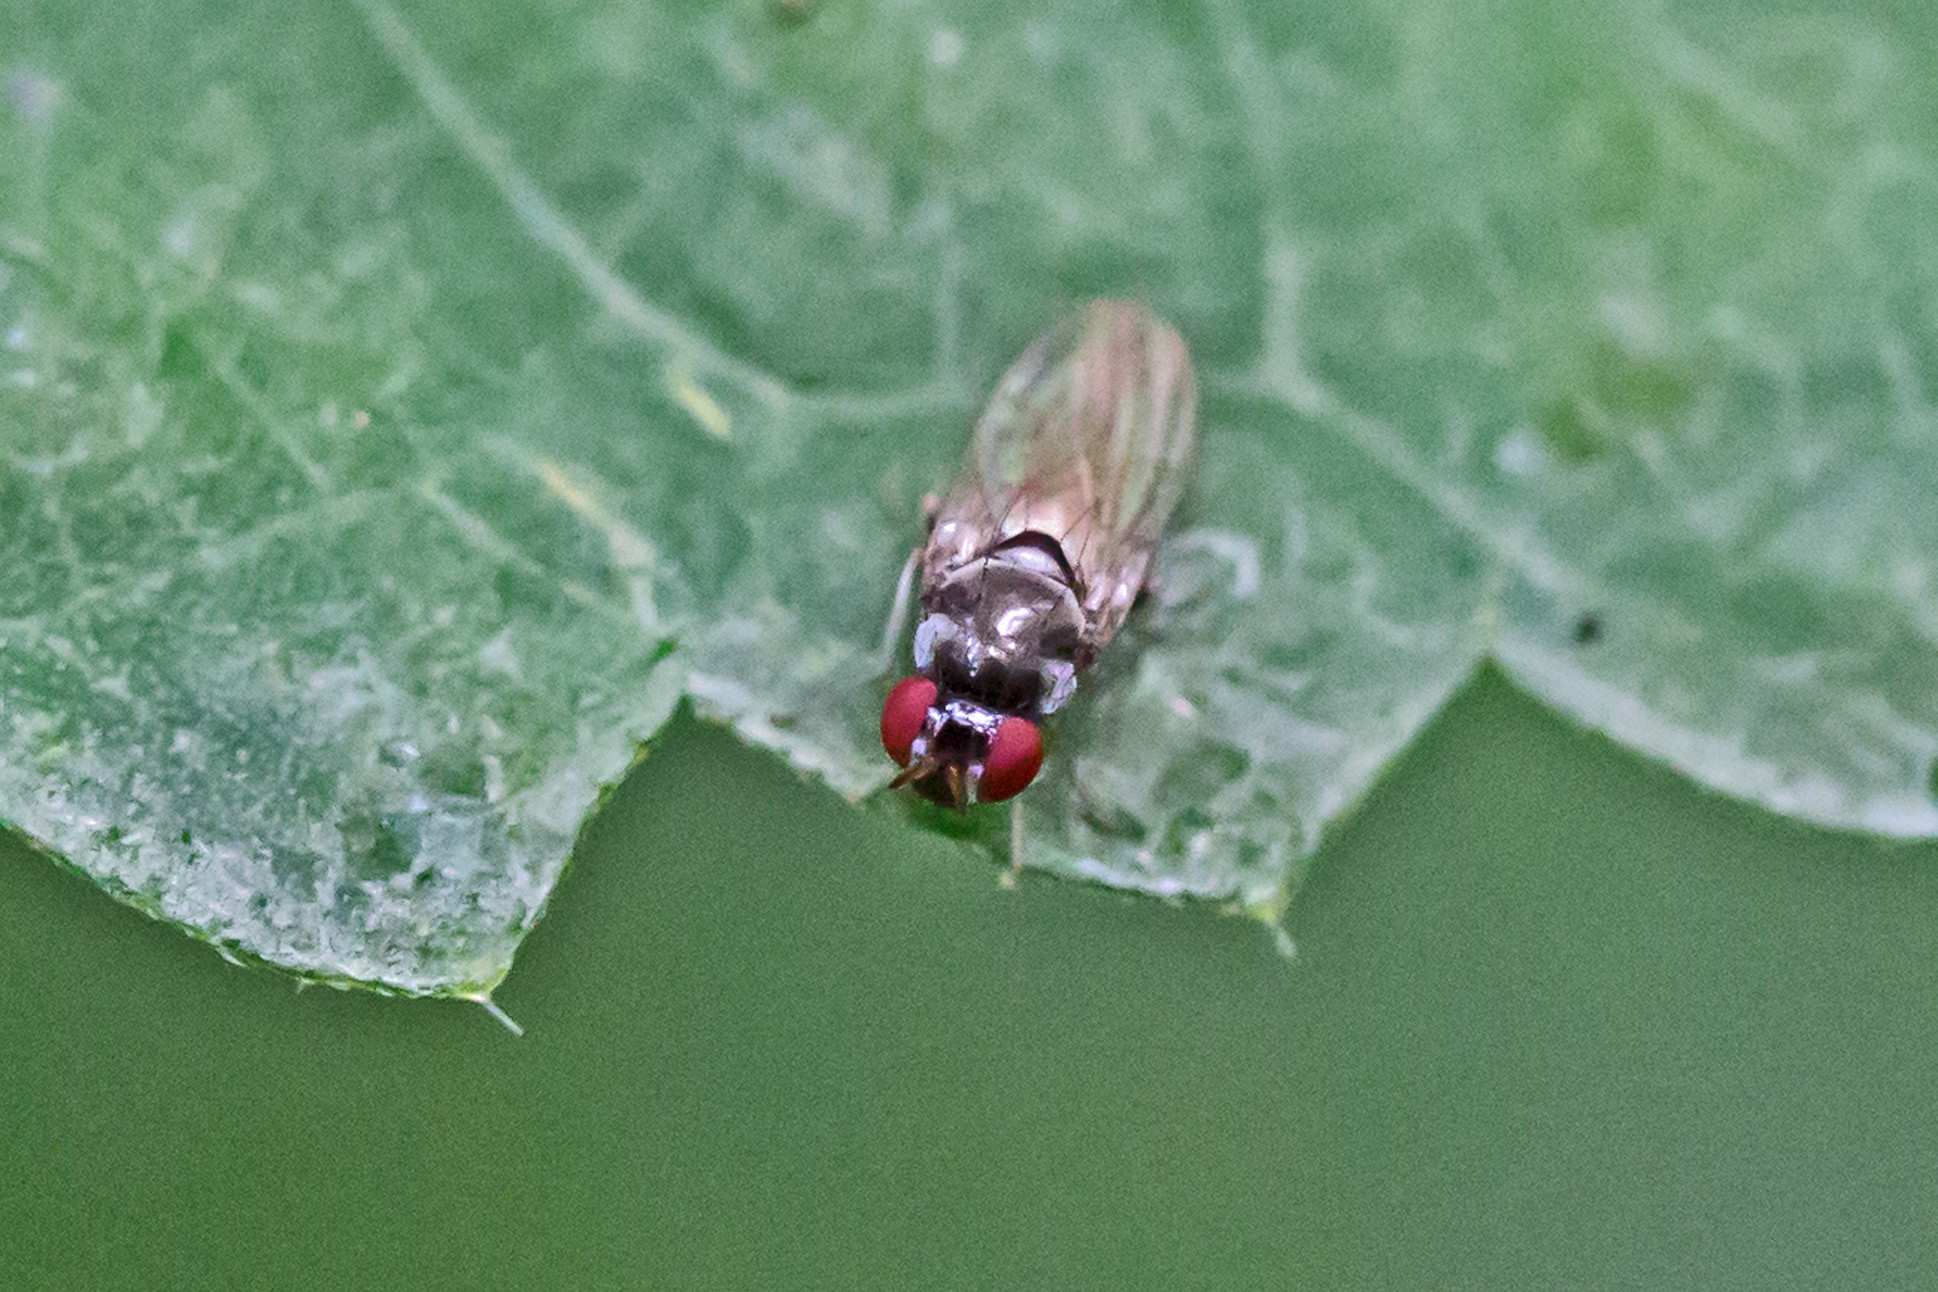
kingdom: Animalia
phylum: Arthropoda
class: Insecta
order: Diptera
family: Lauxaniidae
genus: Melanomyza
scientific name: Melanomyza femoralis
